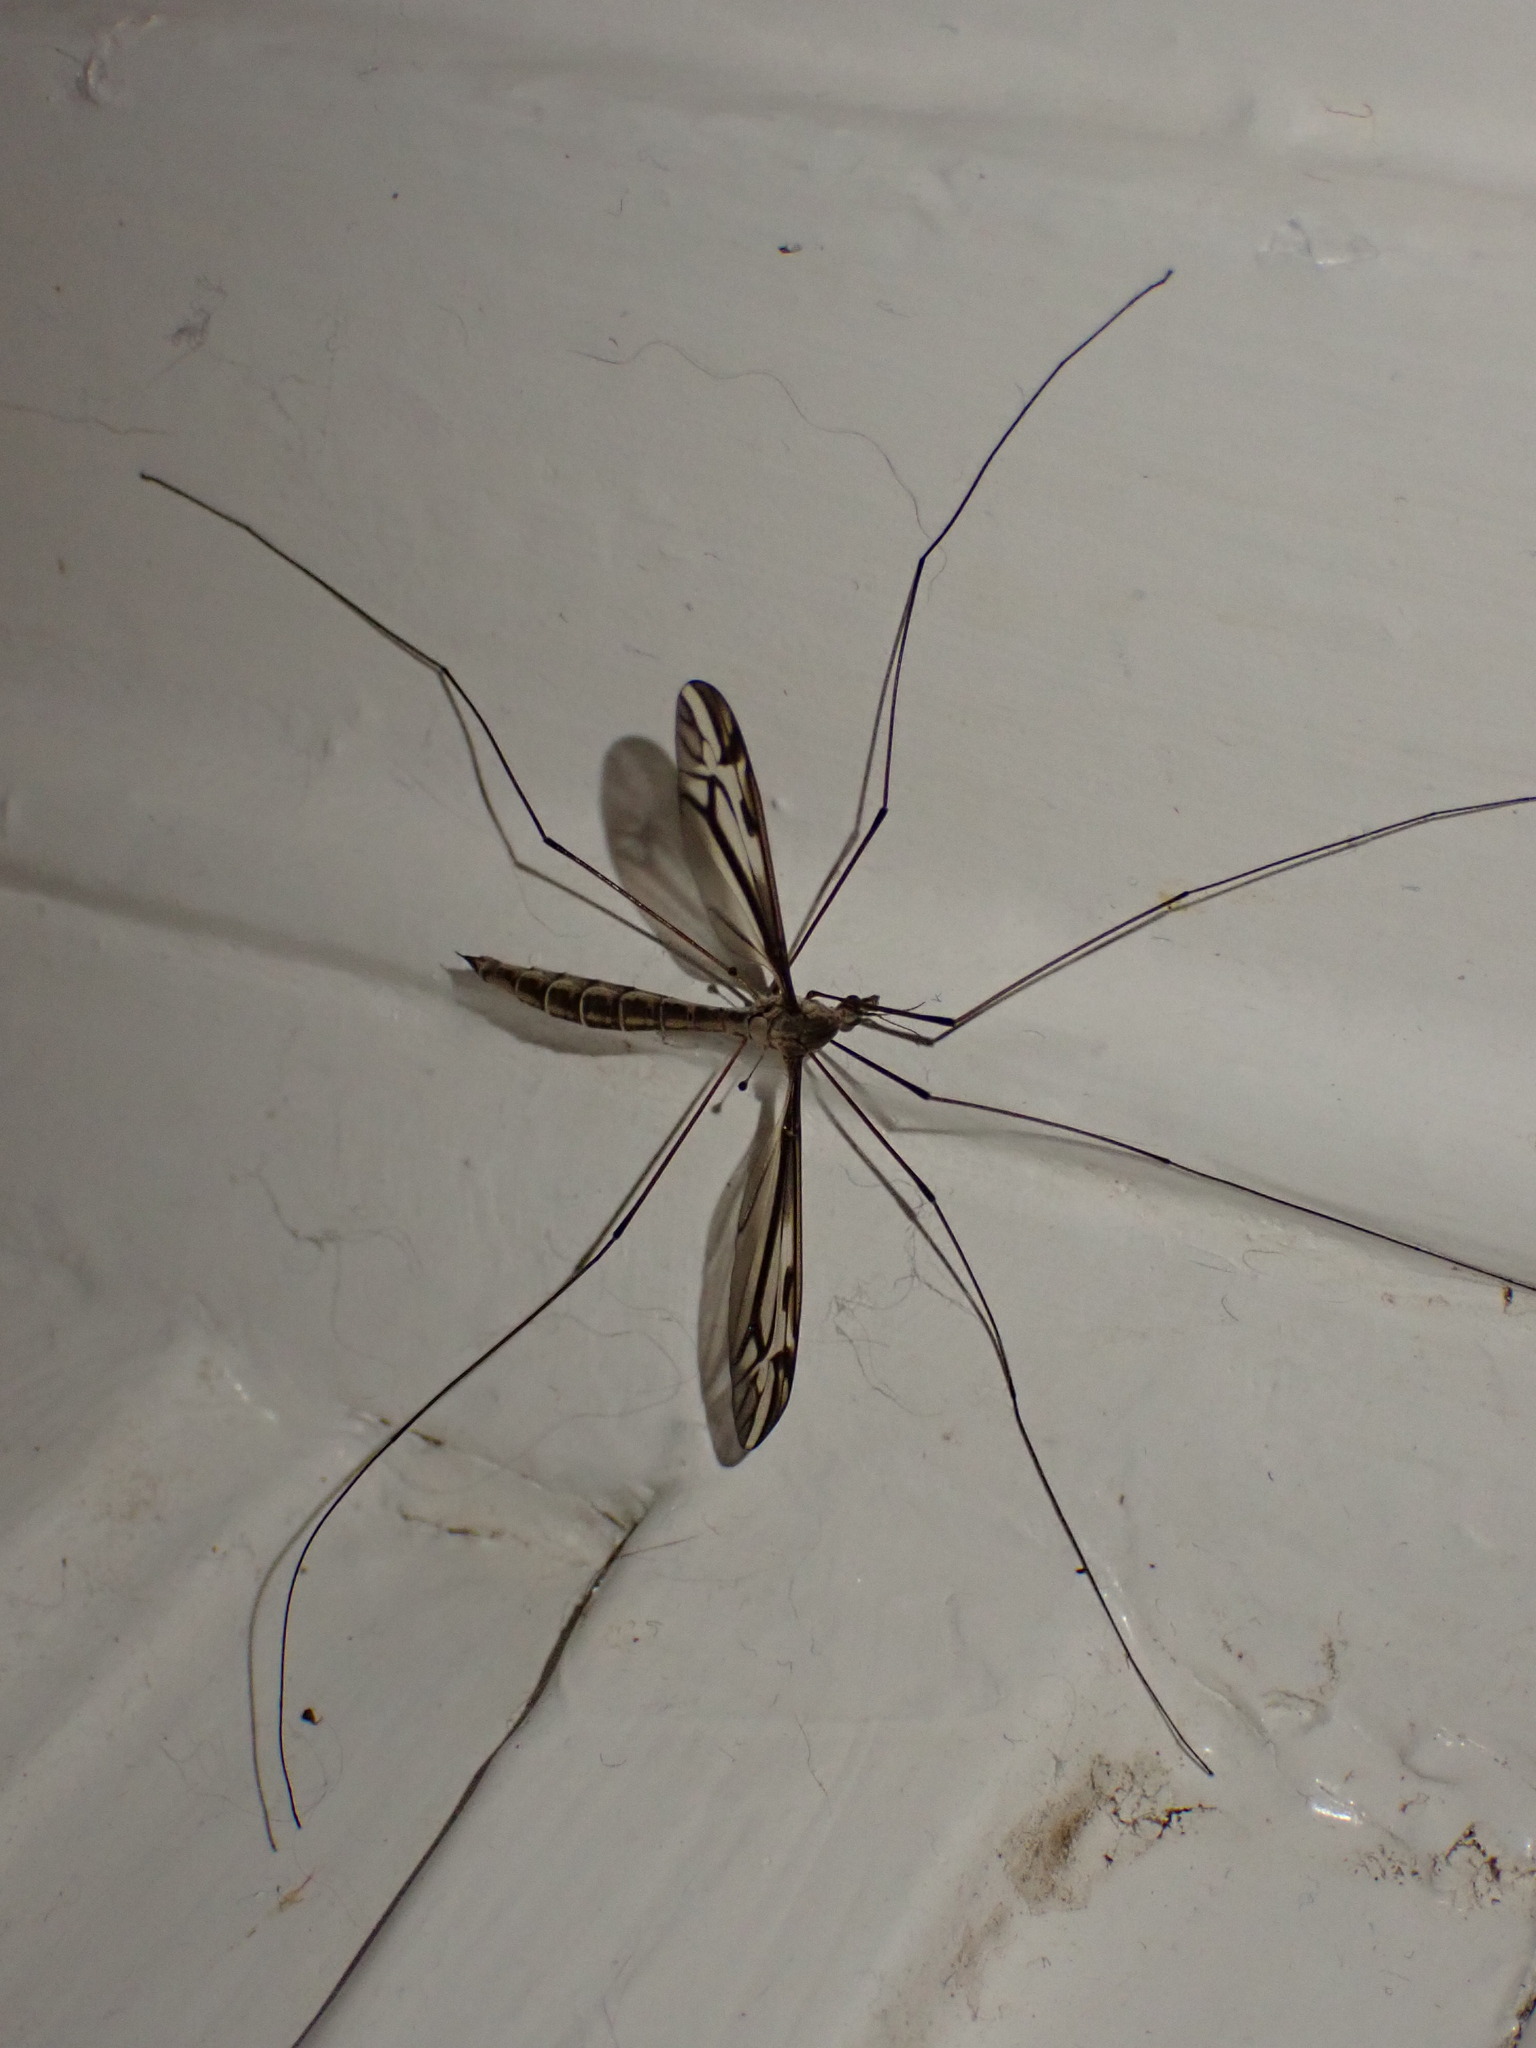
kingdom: Animalia
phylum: Arthropoda
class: Insecta
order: Diptera
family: Tipulidae
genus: Tipula
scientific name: Tipula
